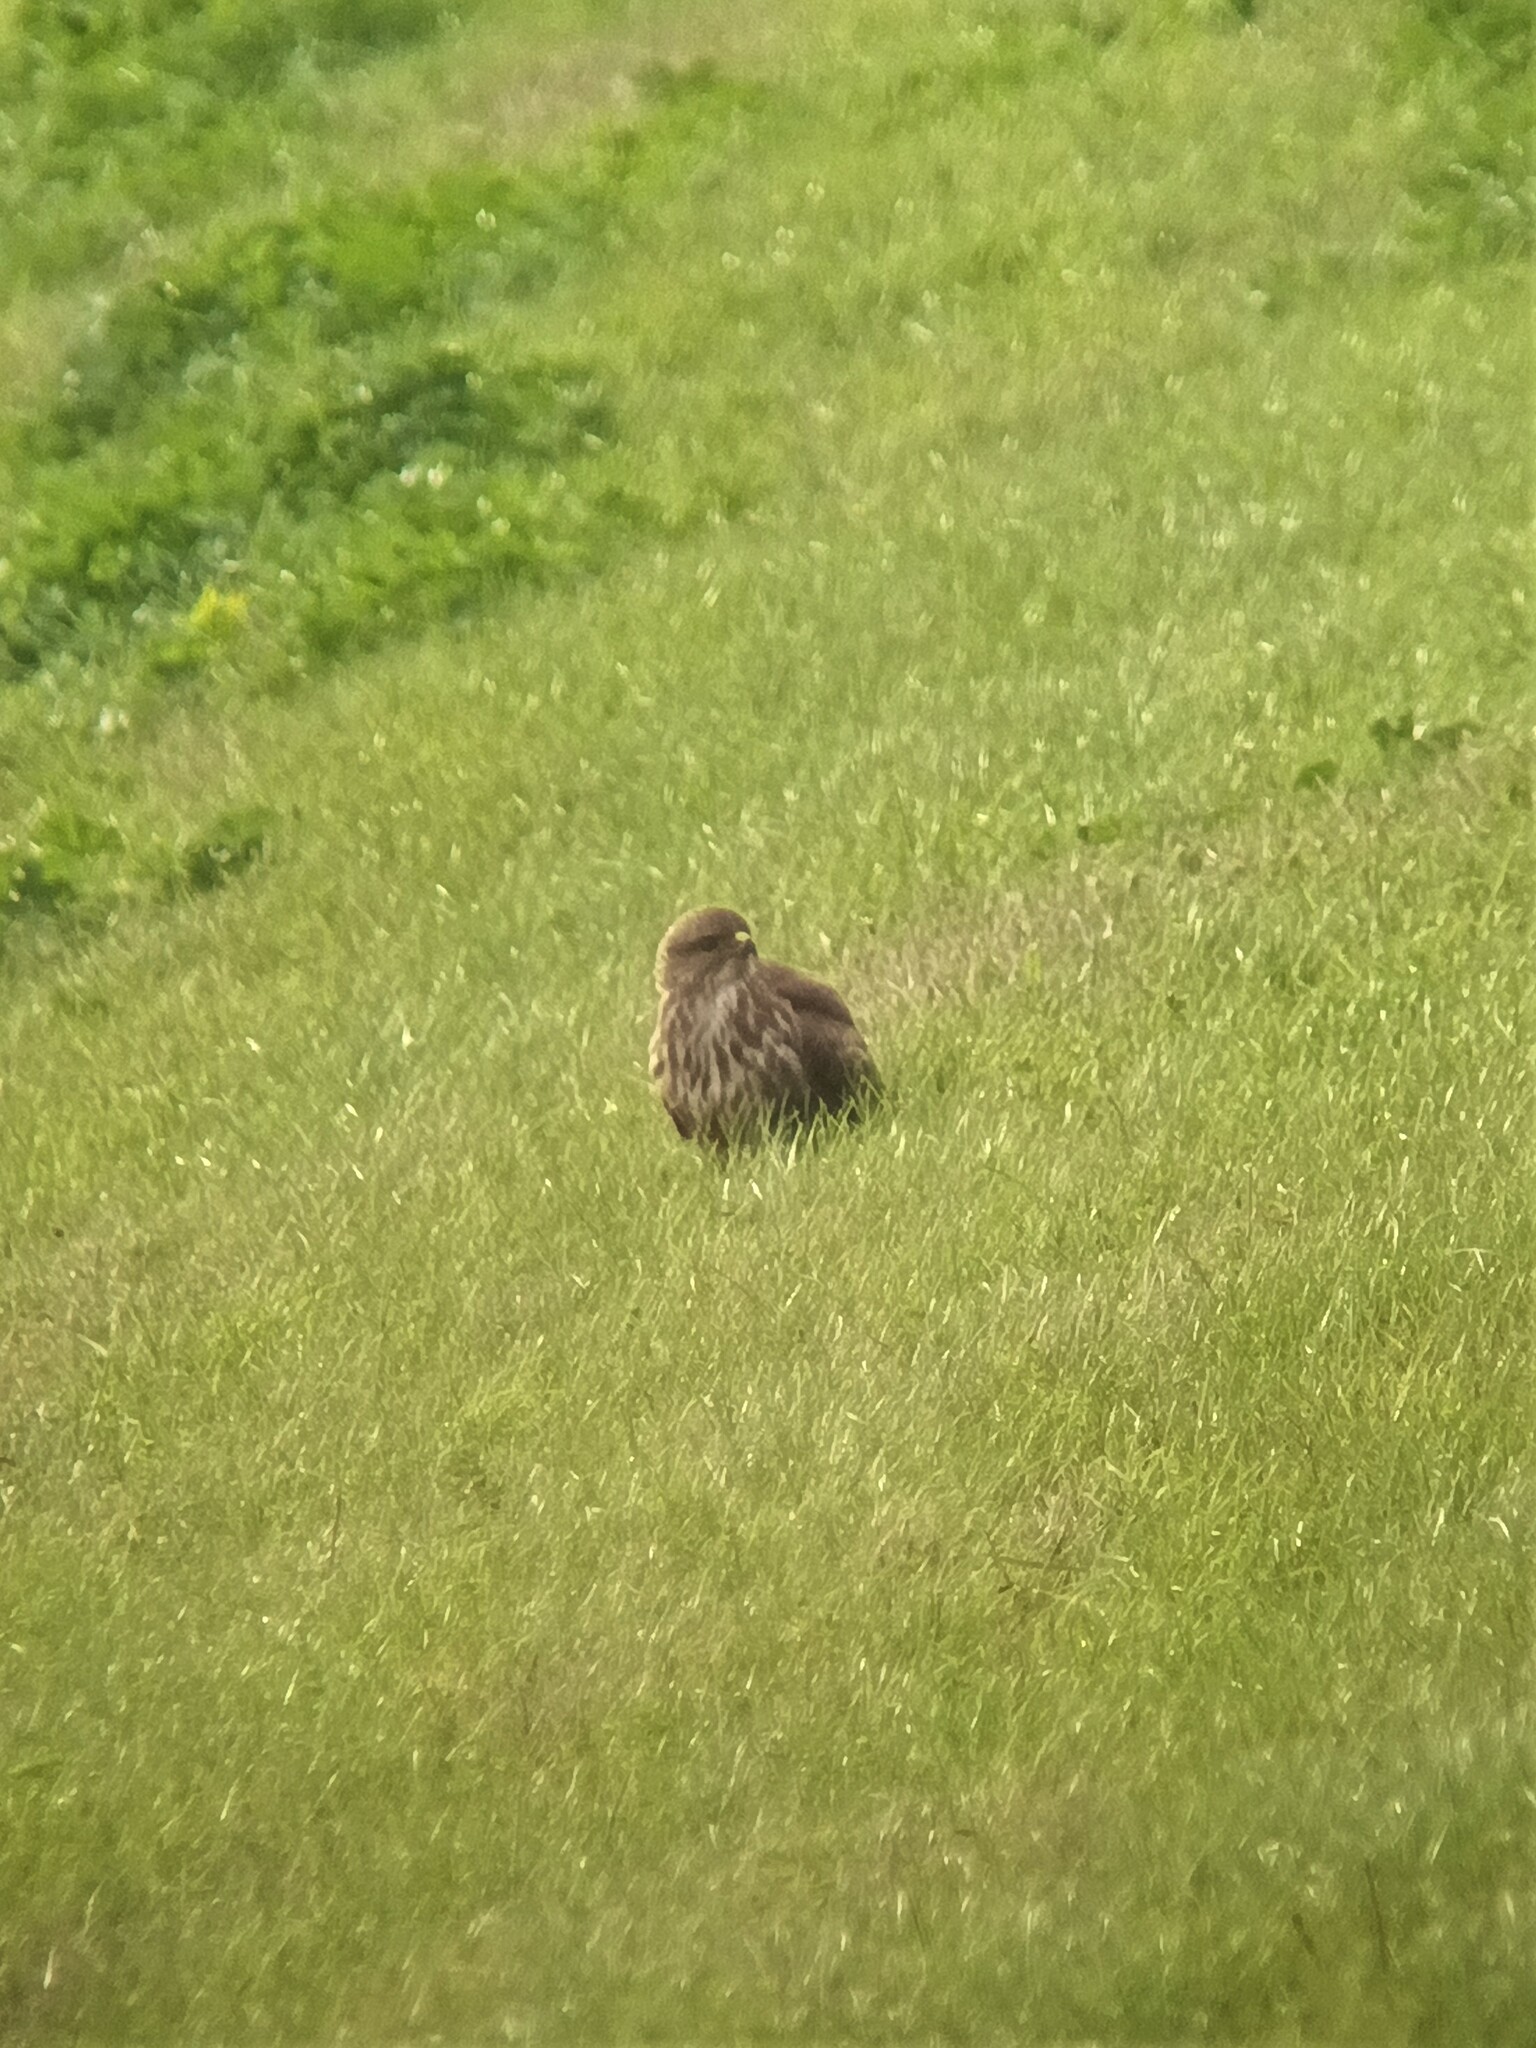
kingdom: Animalia
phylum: Chordata
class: Aves
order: Accipitriformes
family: Accipitridae
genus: Buteo
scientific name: Buteo buteo
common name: Common buzzard
